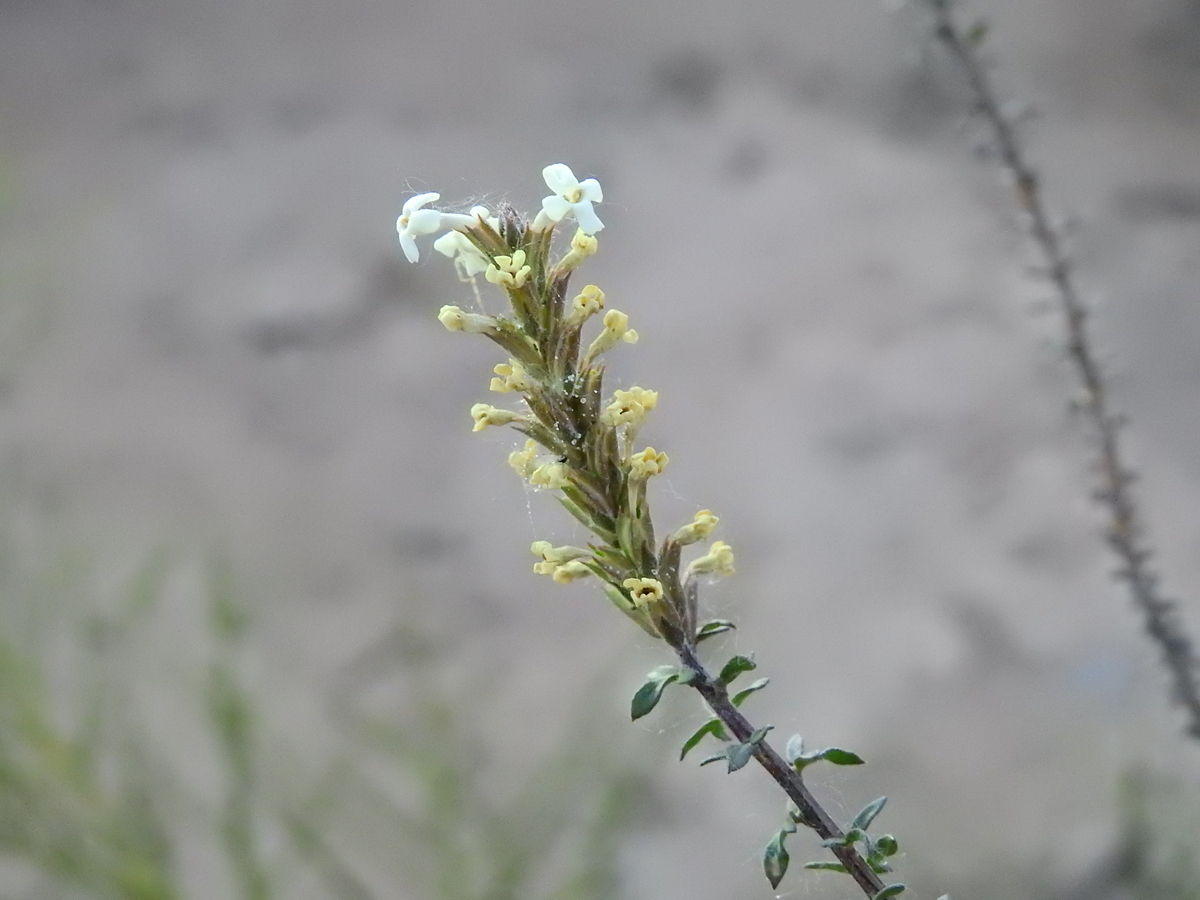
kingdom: Plantae
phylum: Tracheophyta
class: Magnoliopsida
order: Lamiales
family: Verbenaceae
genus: Mulguraea
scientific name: Mulguraea aspera
